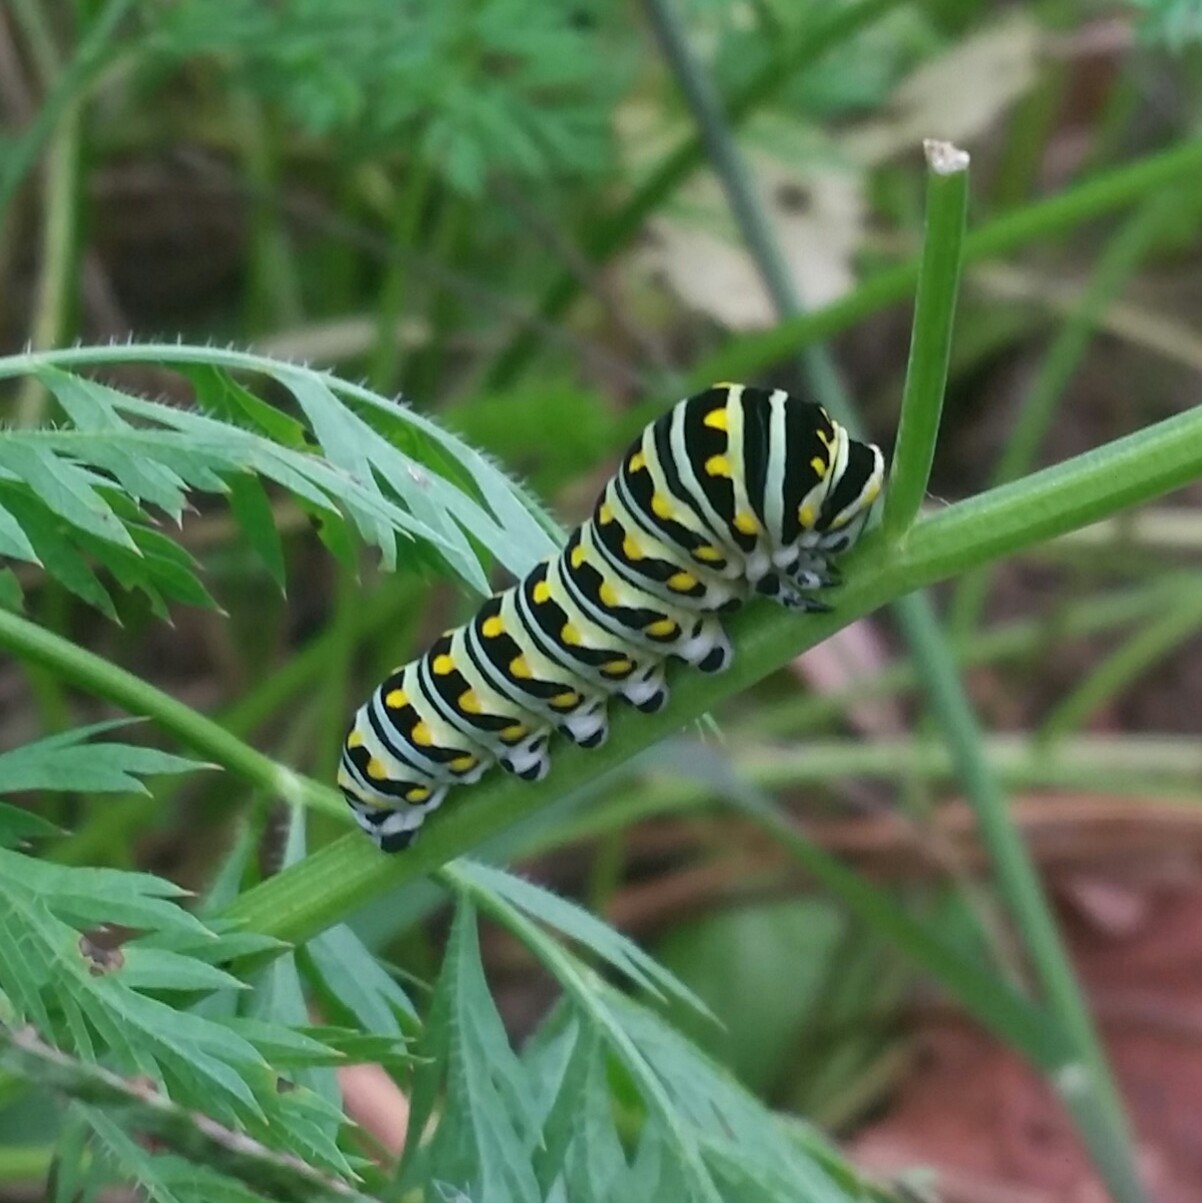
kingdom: Animalia
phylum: Arthropoda
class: Insecta
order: Lepidoptera
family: Papilionidae
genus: Papilio
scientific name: Papilio polyxenes
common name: Black swallowtail
